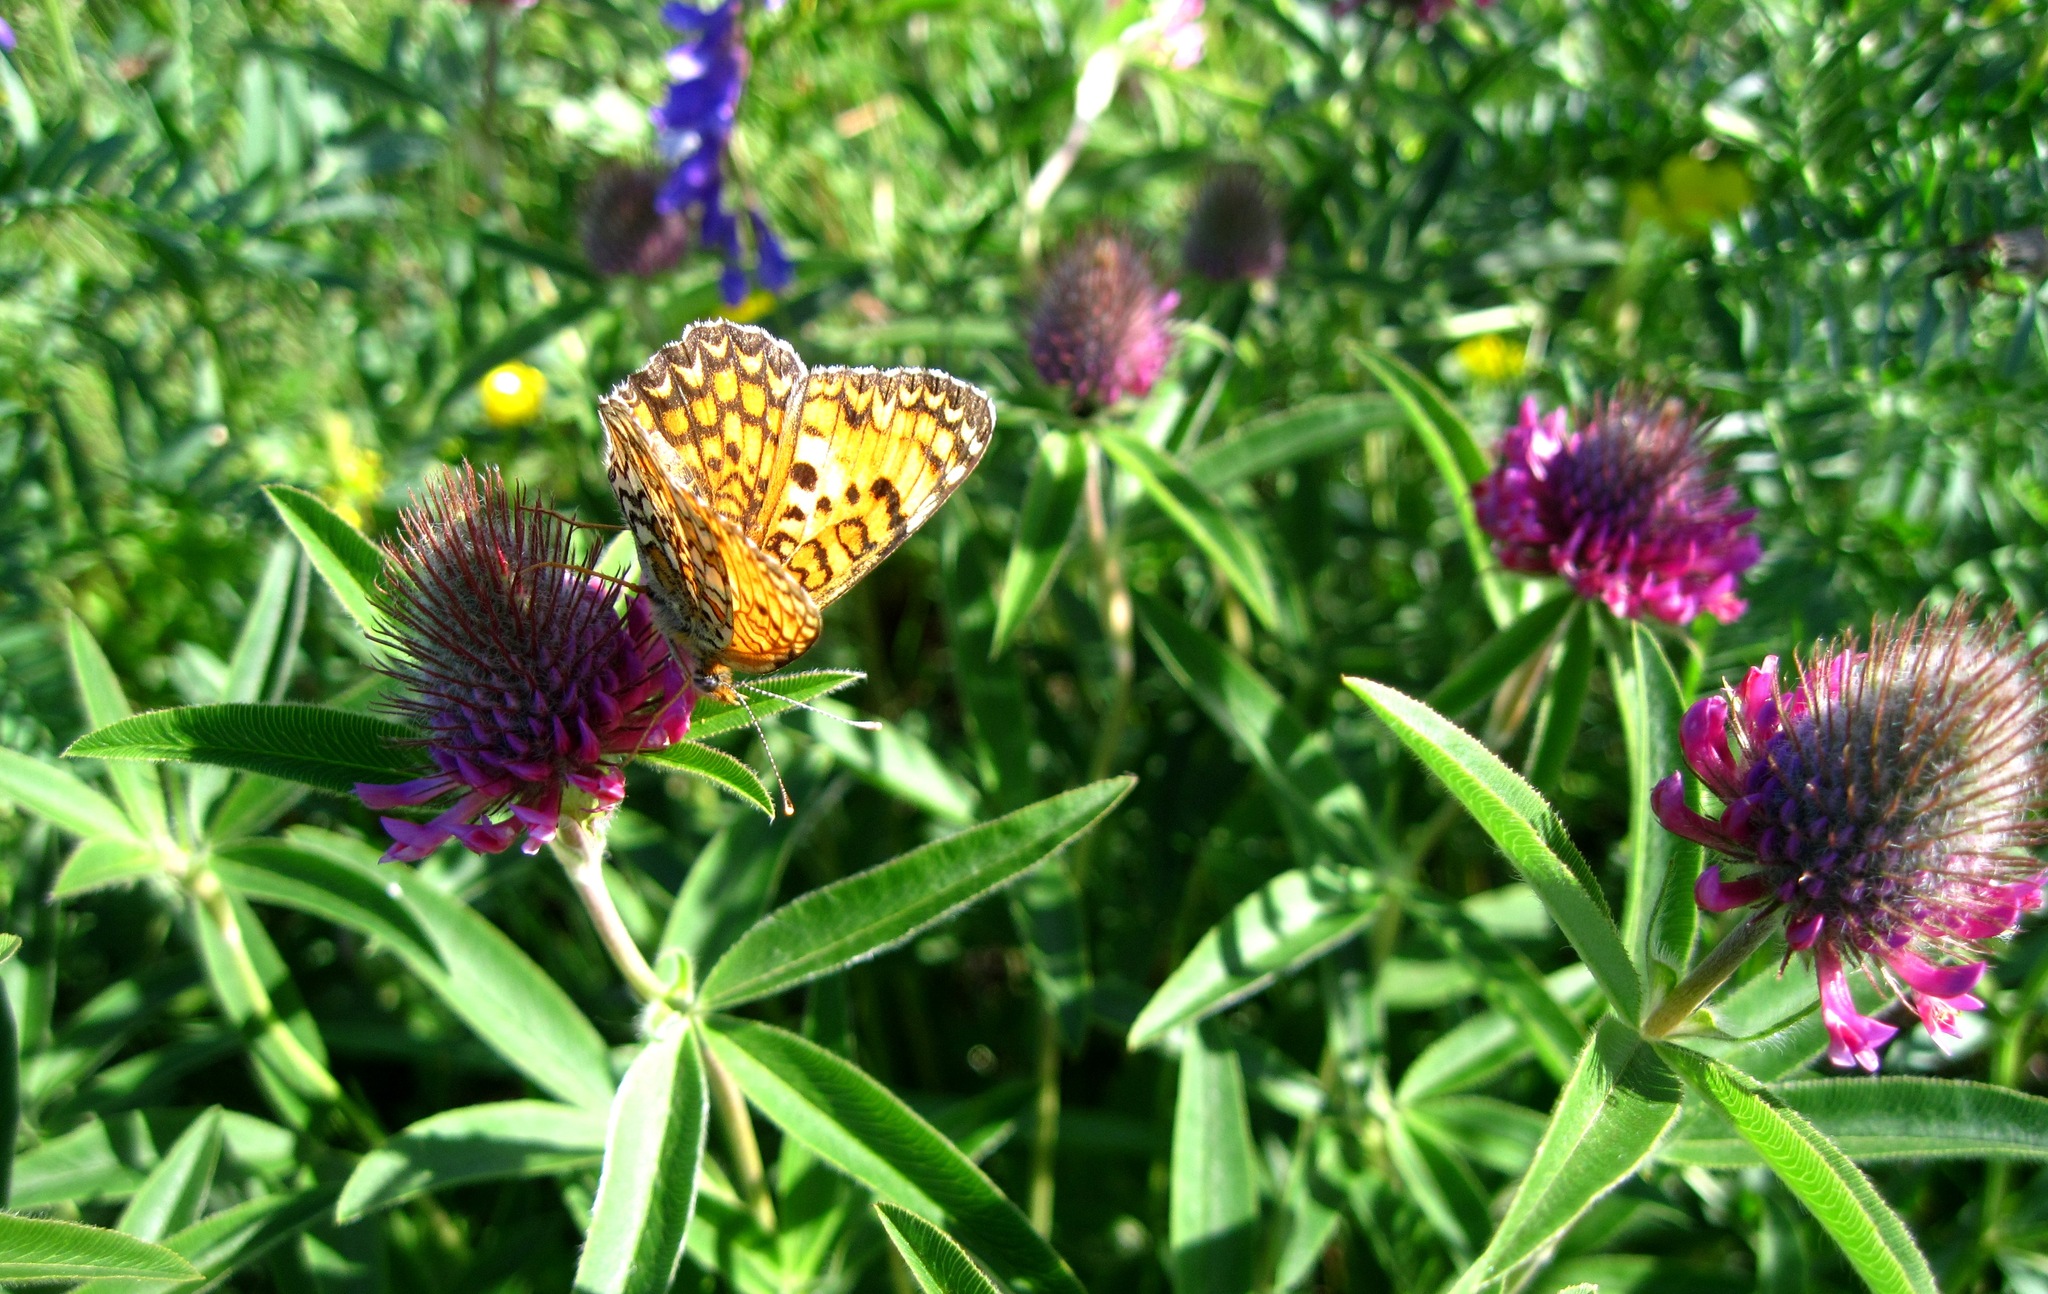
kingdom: Animalia
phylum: Arthropoda
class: Insecta
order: Lepidoptera
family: Nymphalidae
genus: Melitaea
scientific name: Melitaea phoebe
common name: Knapweed fritillary
